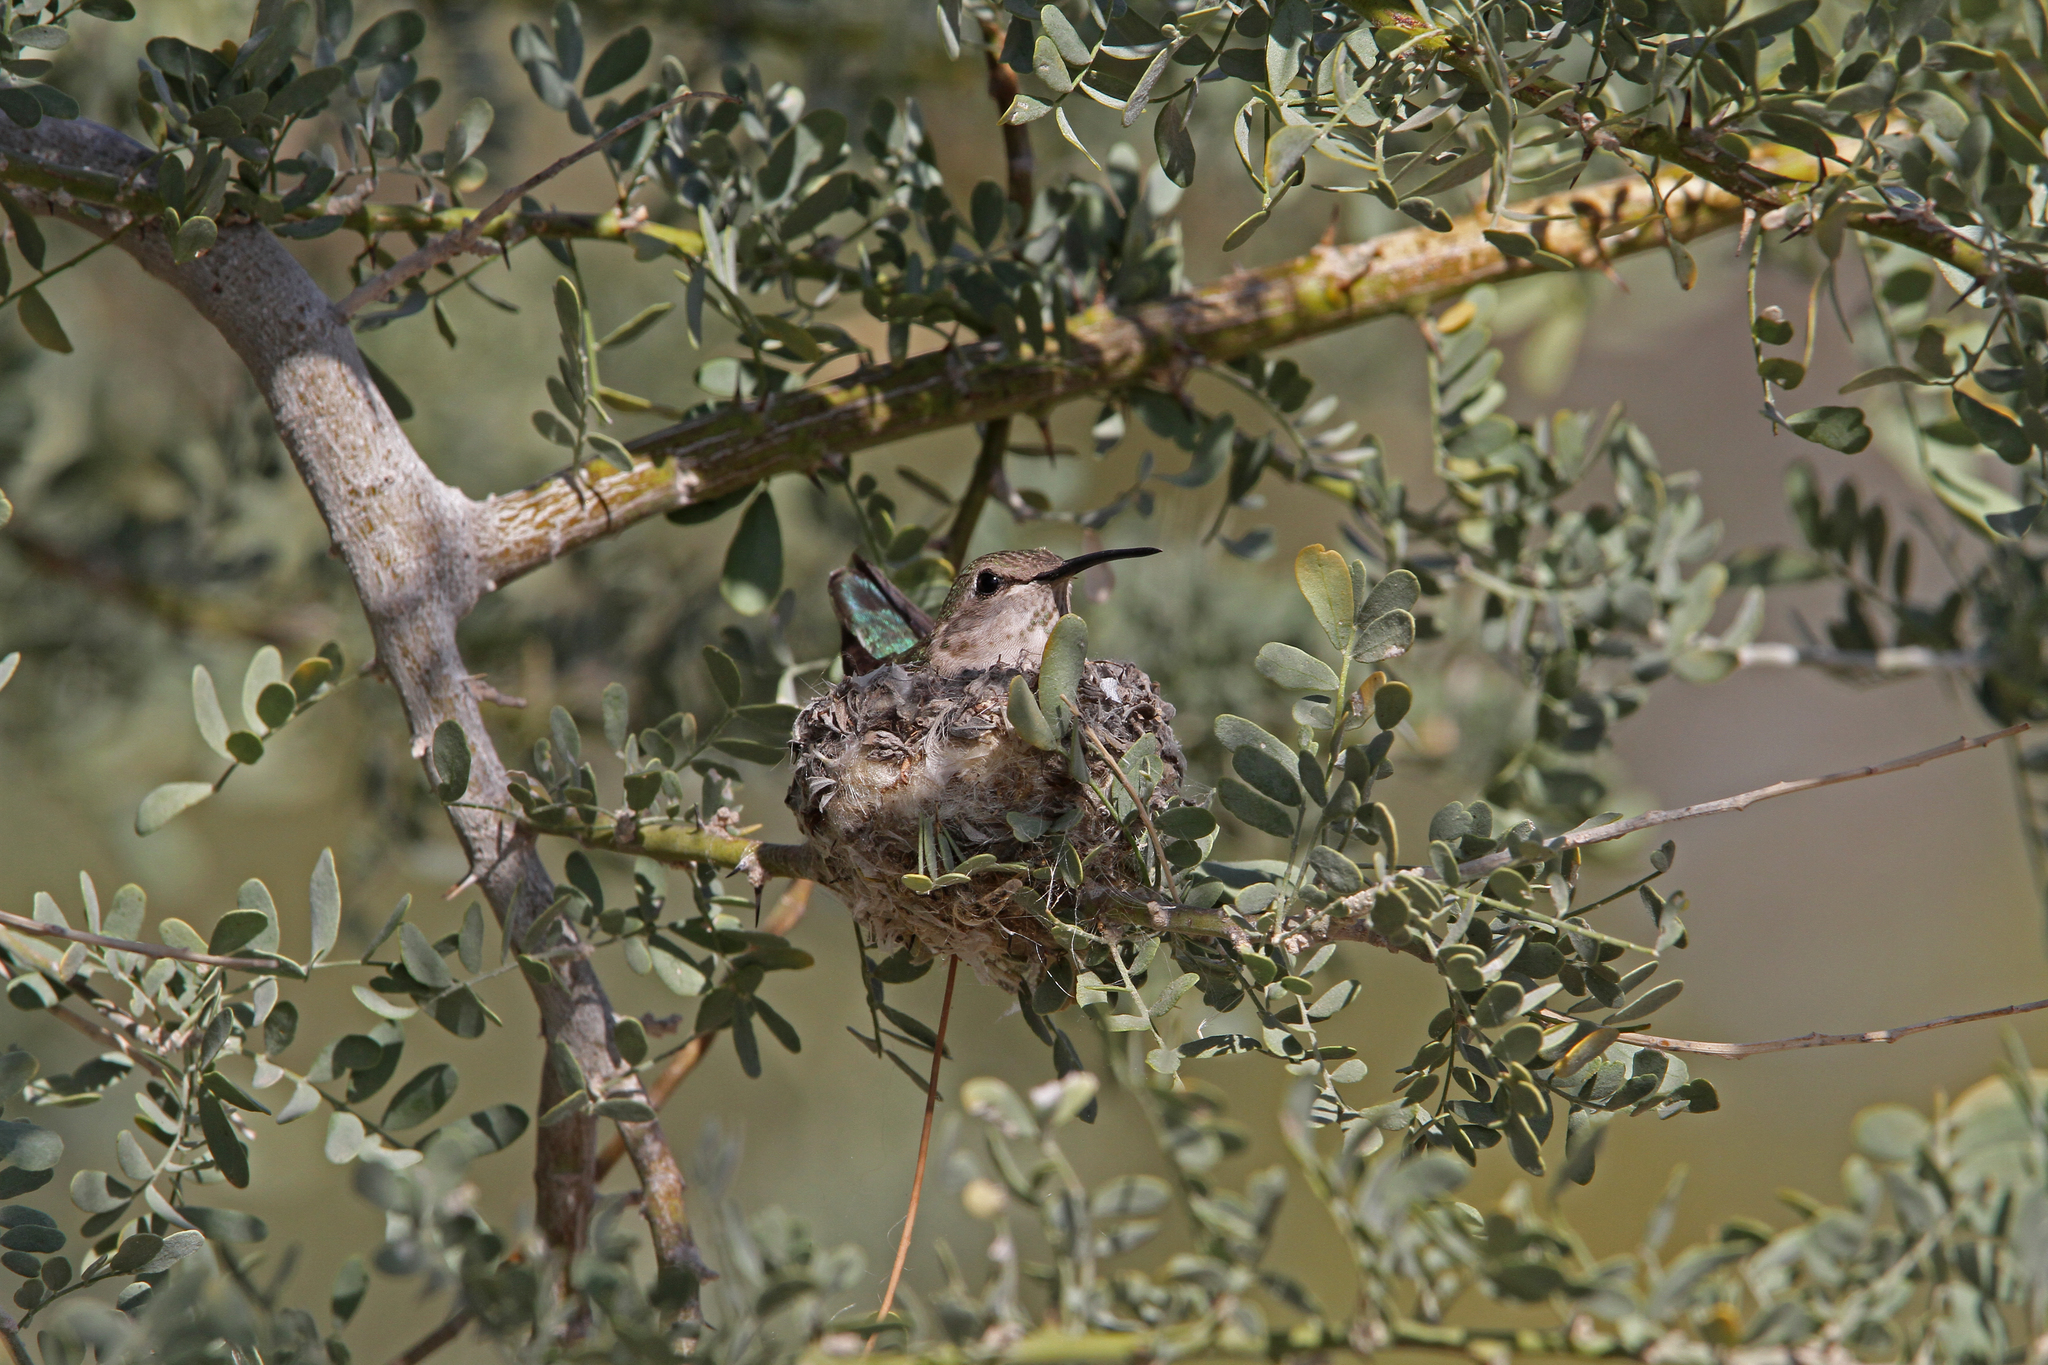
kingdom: Animalia
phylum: Chordata
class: Aves
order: Apodiformes
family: Trochilidae
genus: Calypte
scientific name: Calypte anna
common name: Anna's hummingbird
